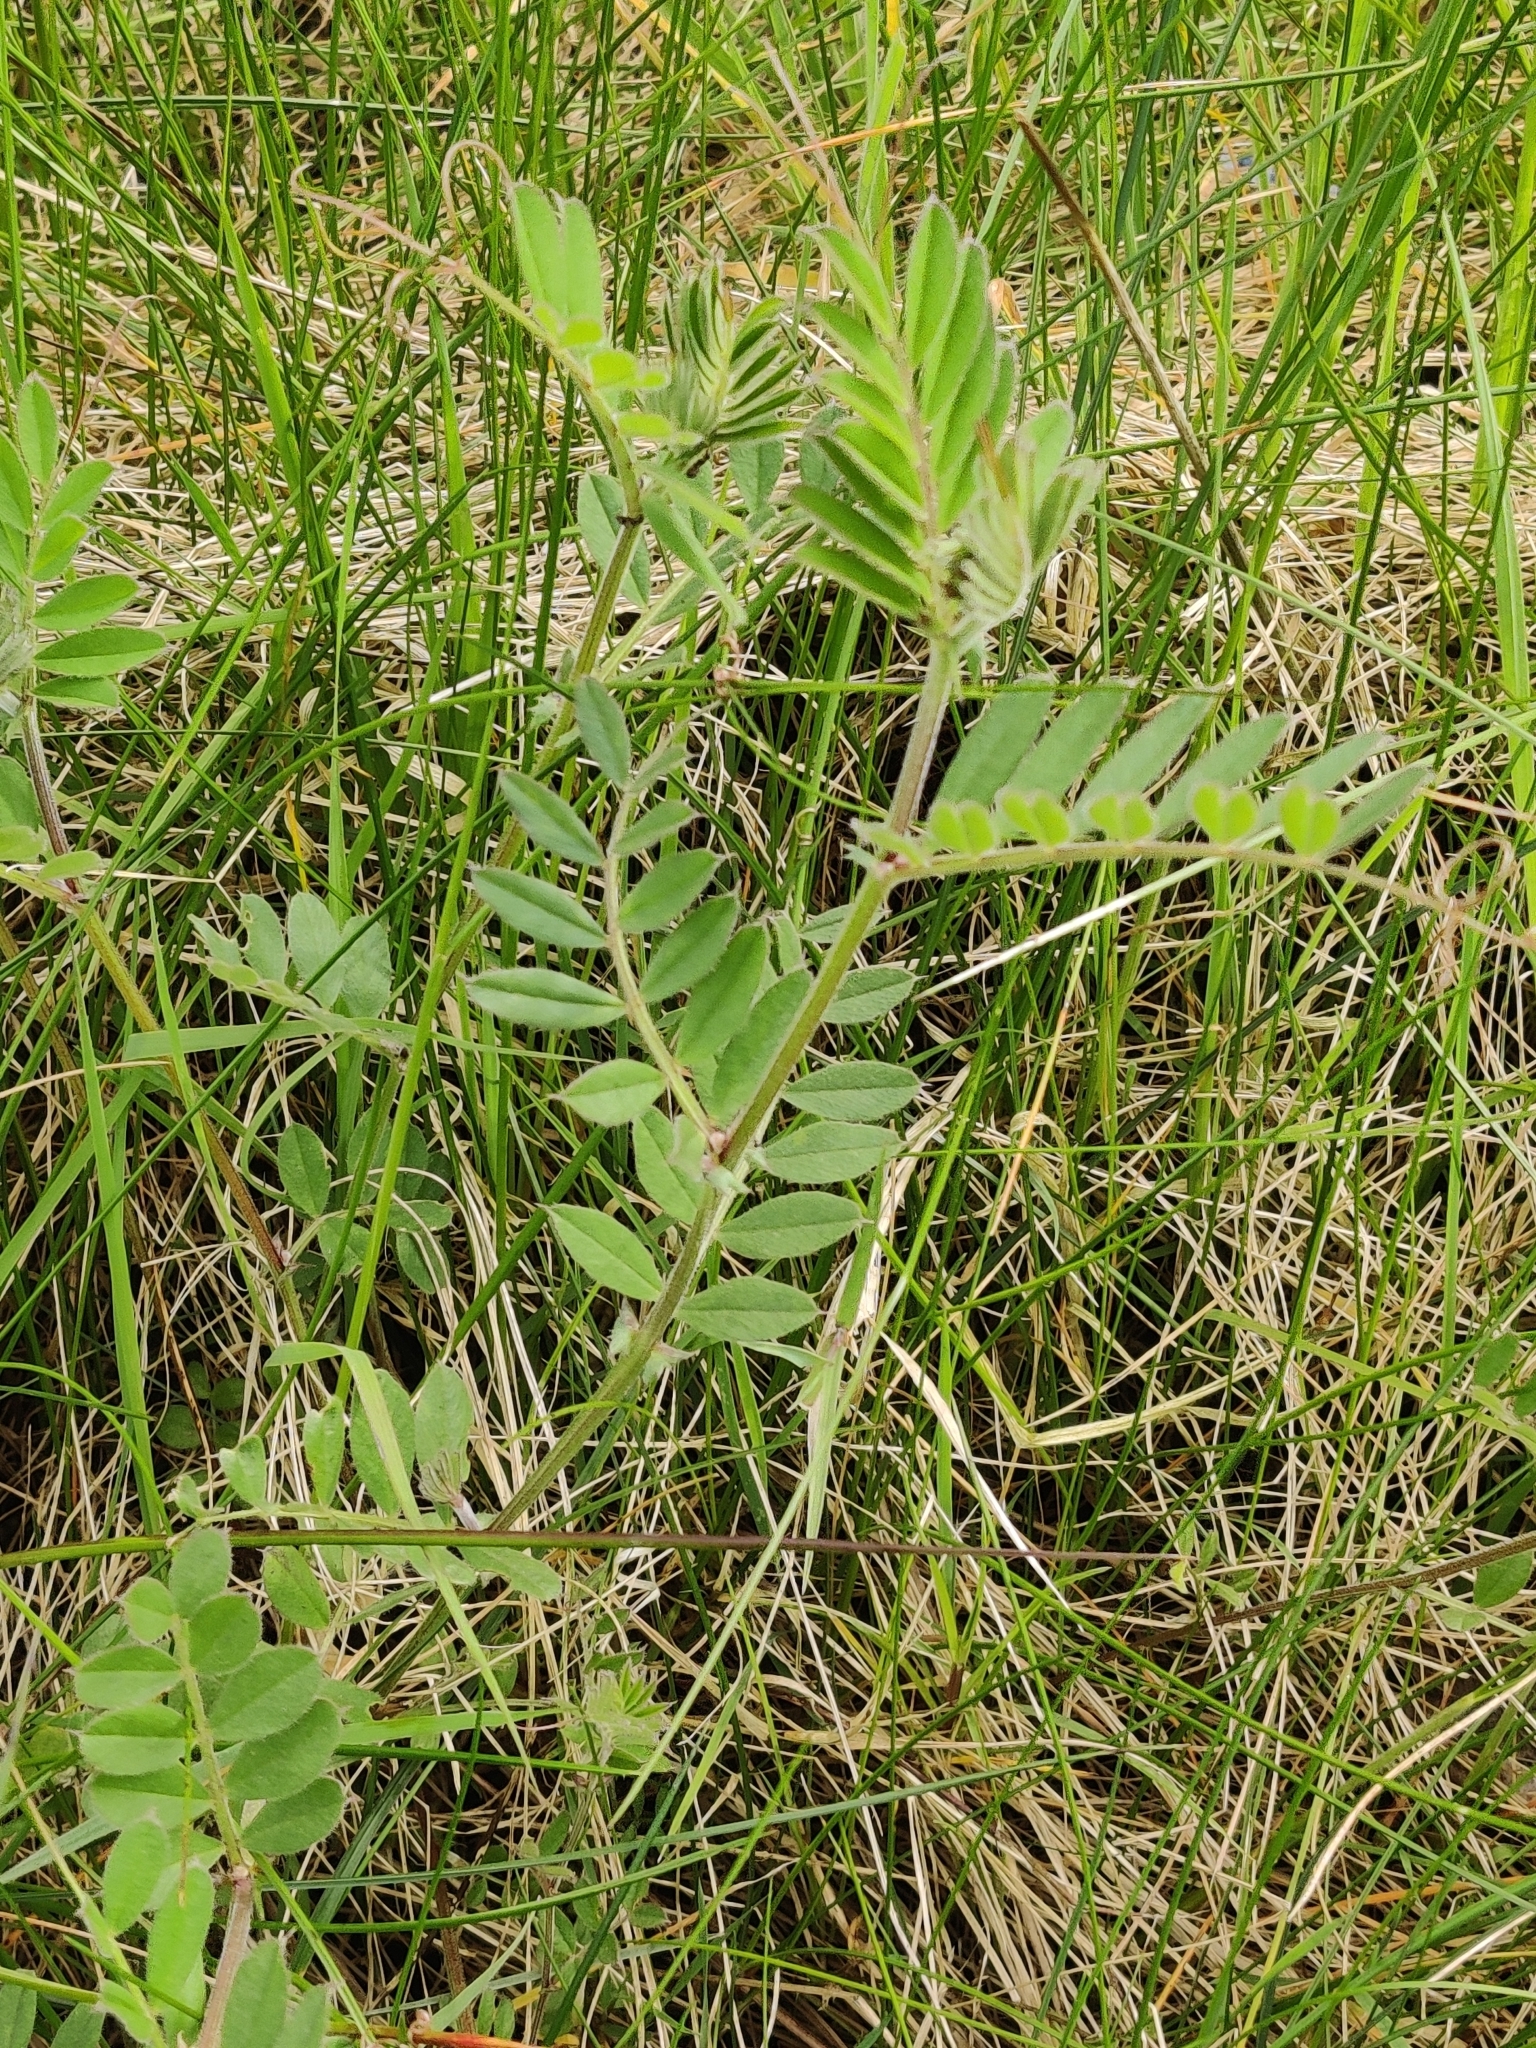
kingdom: Plantae
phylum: Tracheophyta
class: Magnoliopsida
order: Fabales
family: Fabaceae
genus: Vicia
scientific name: Vicia sativa
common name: Garden vetch
